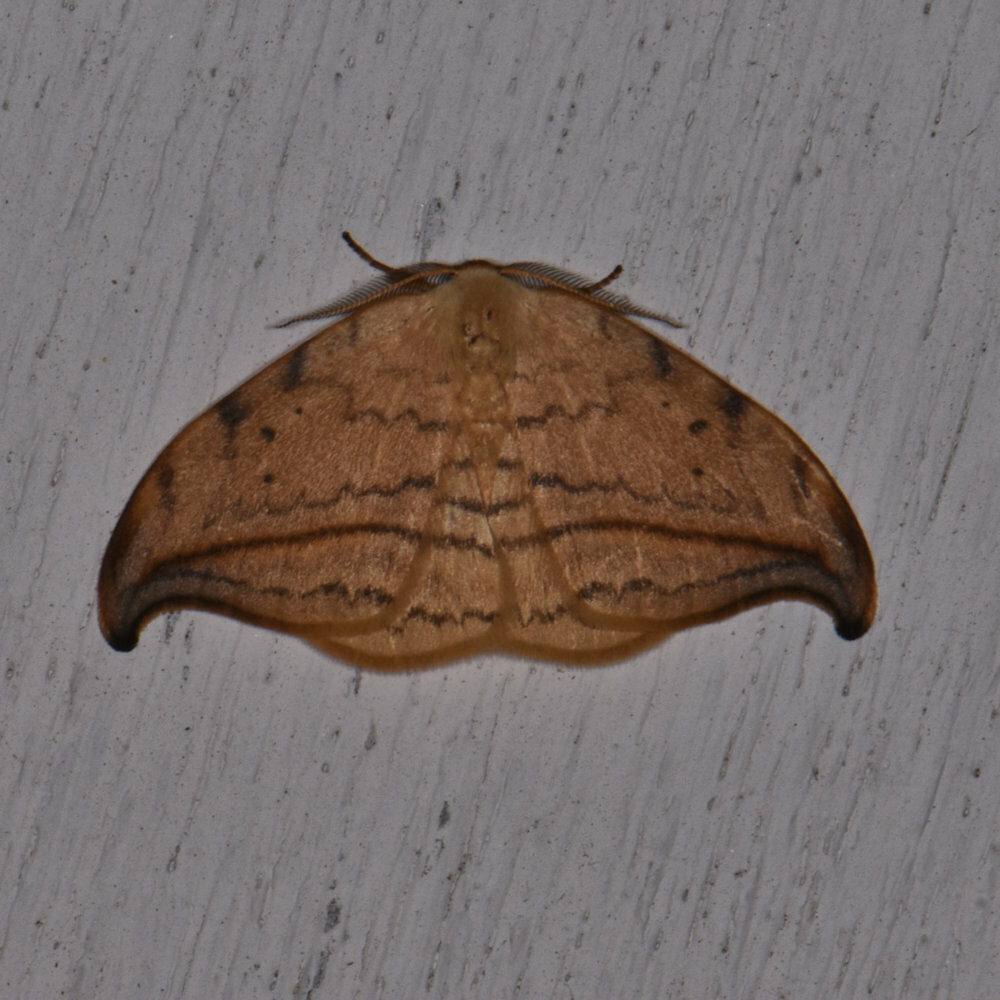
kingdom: Animalia
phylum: Arthropoda
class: Insecta
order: Lepidoptera
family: Drepanidae
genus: Drepana
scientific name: Drepana arcuata
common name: Arched hooktip moth
